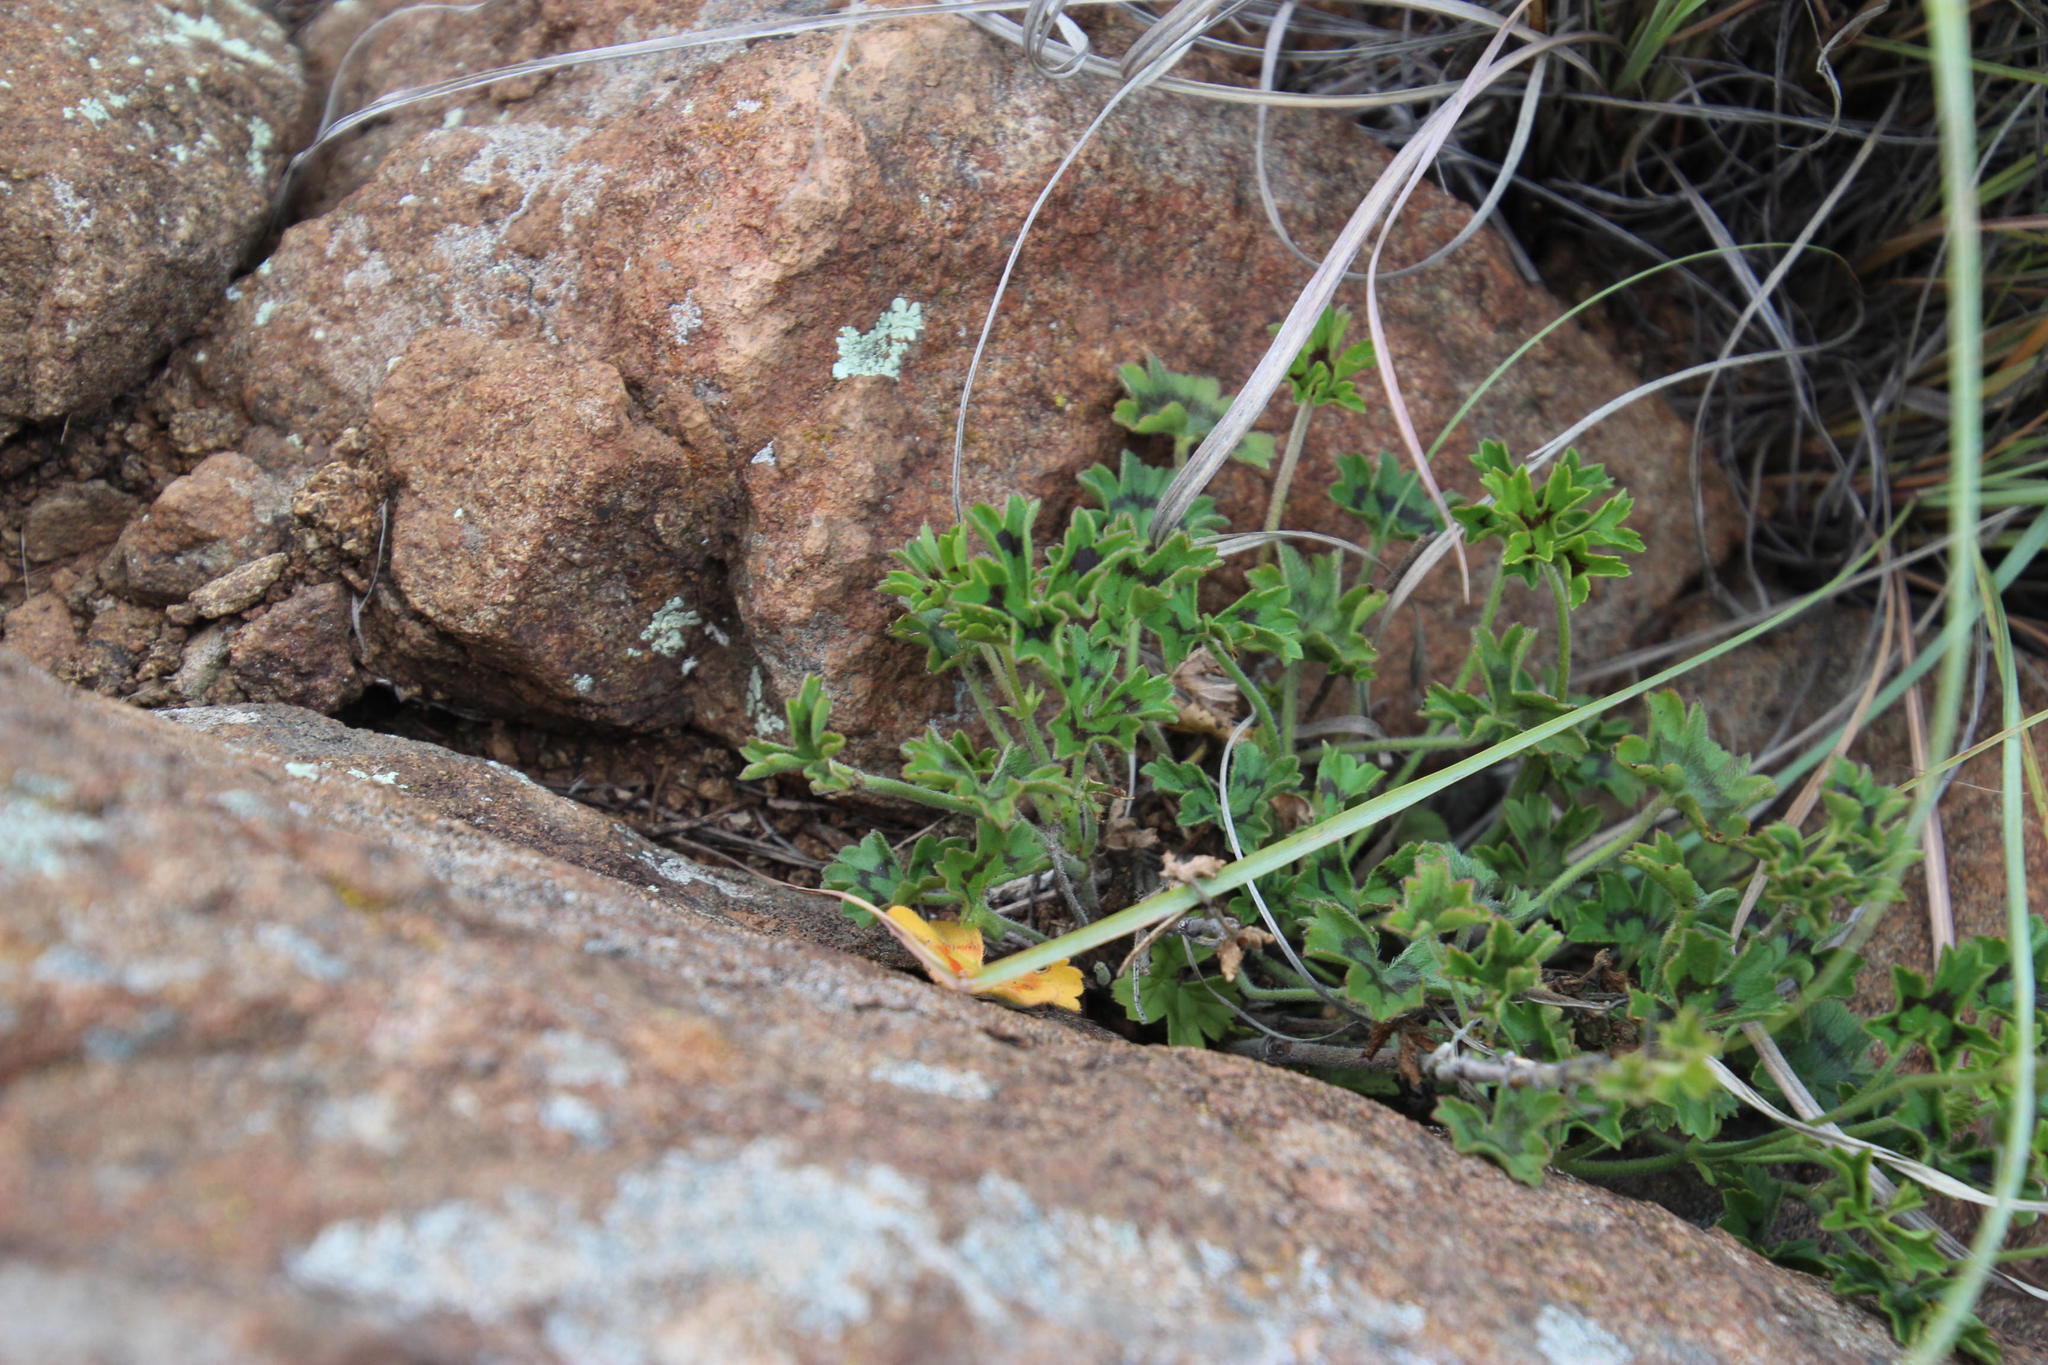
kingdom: Plantae
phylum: Tracheophyta
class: Magnoliopsida
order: Geraniales
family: Geraniaceae
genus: Pelargonium
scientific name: Pelargonium alchemilloides
